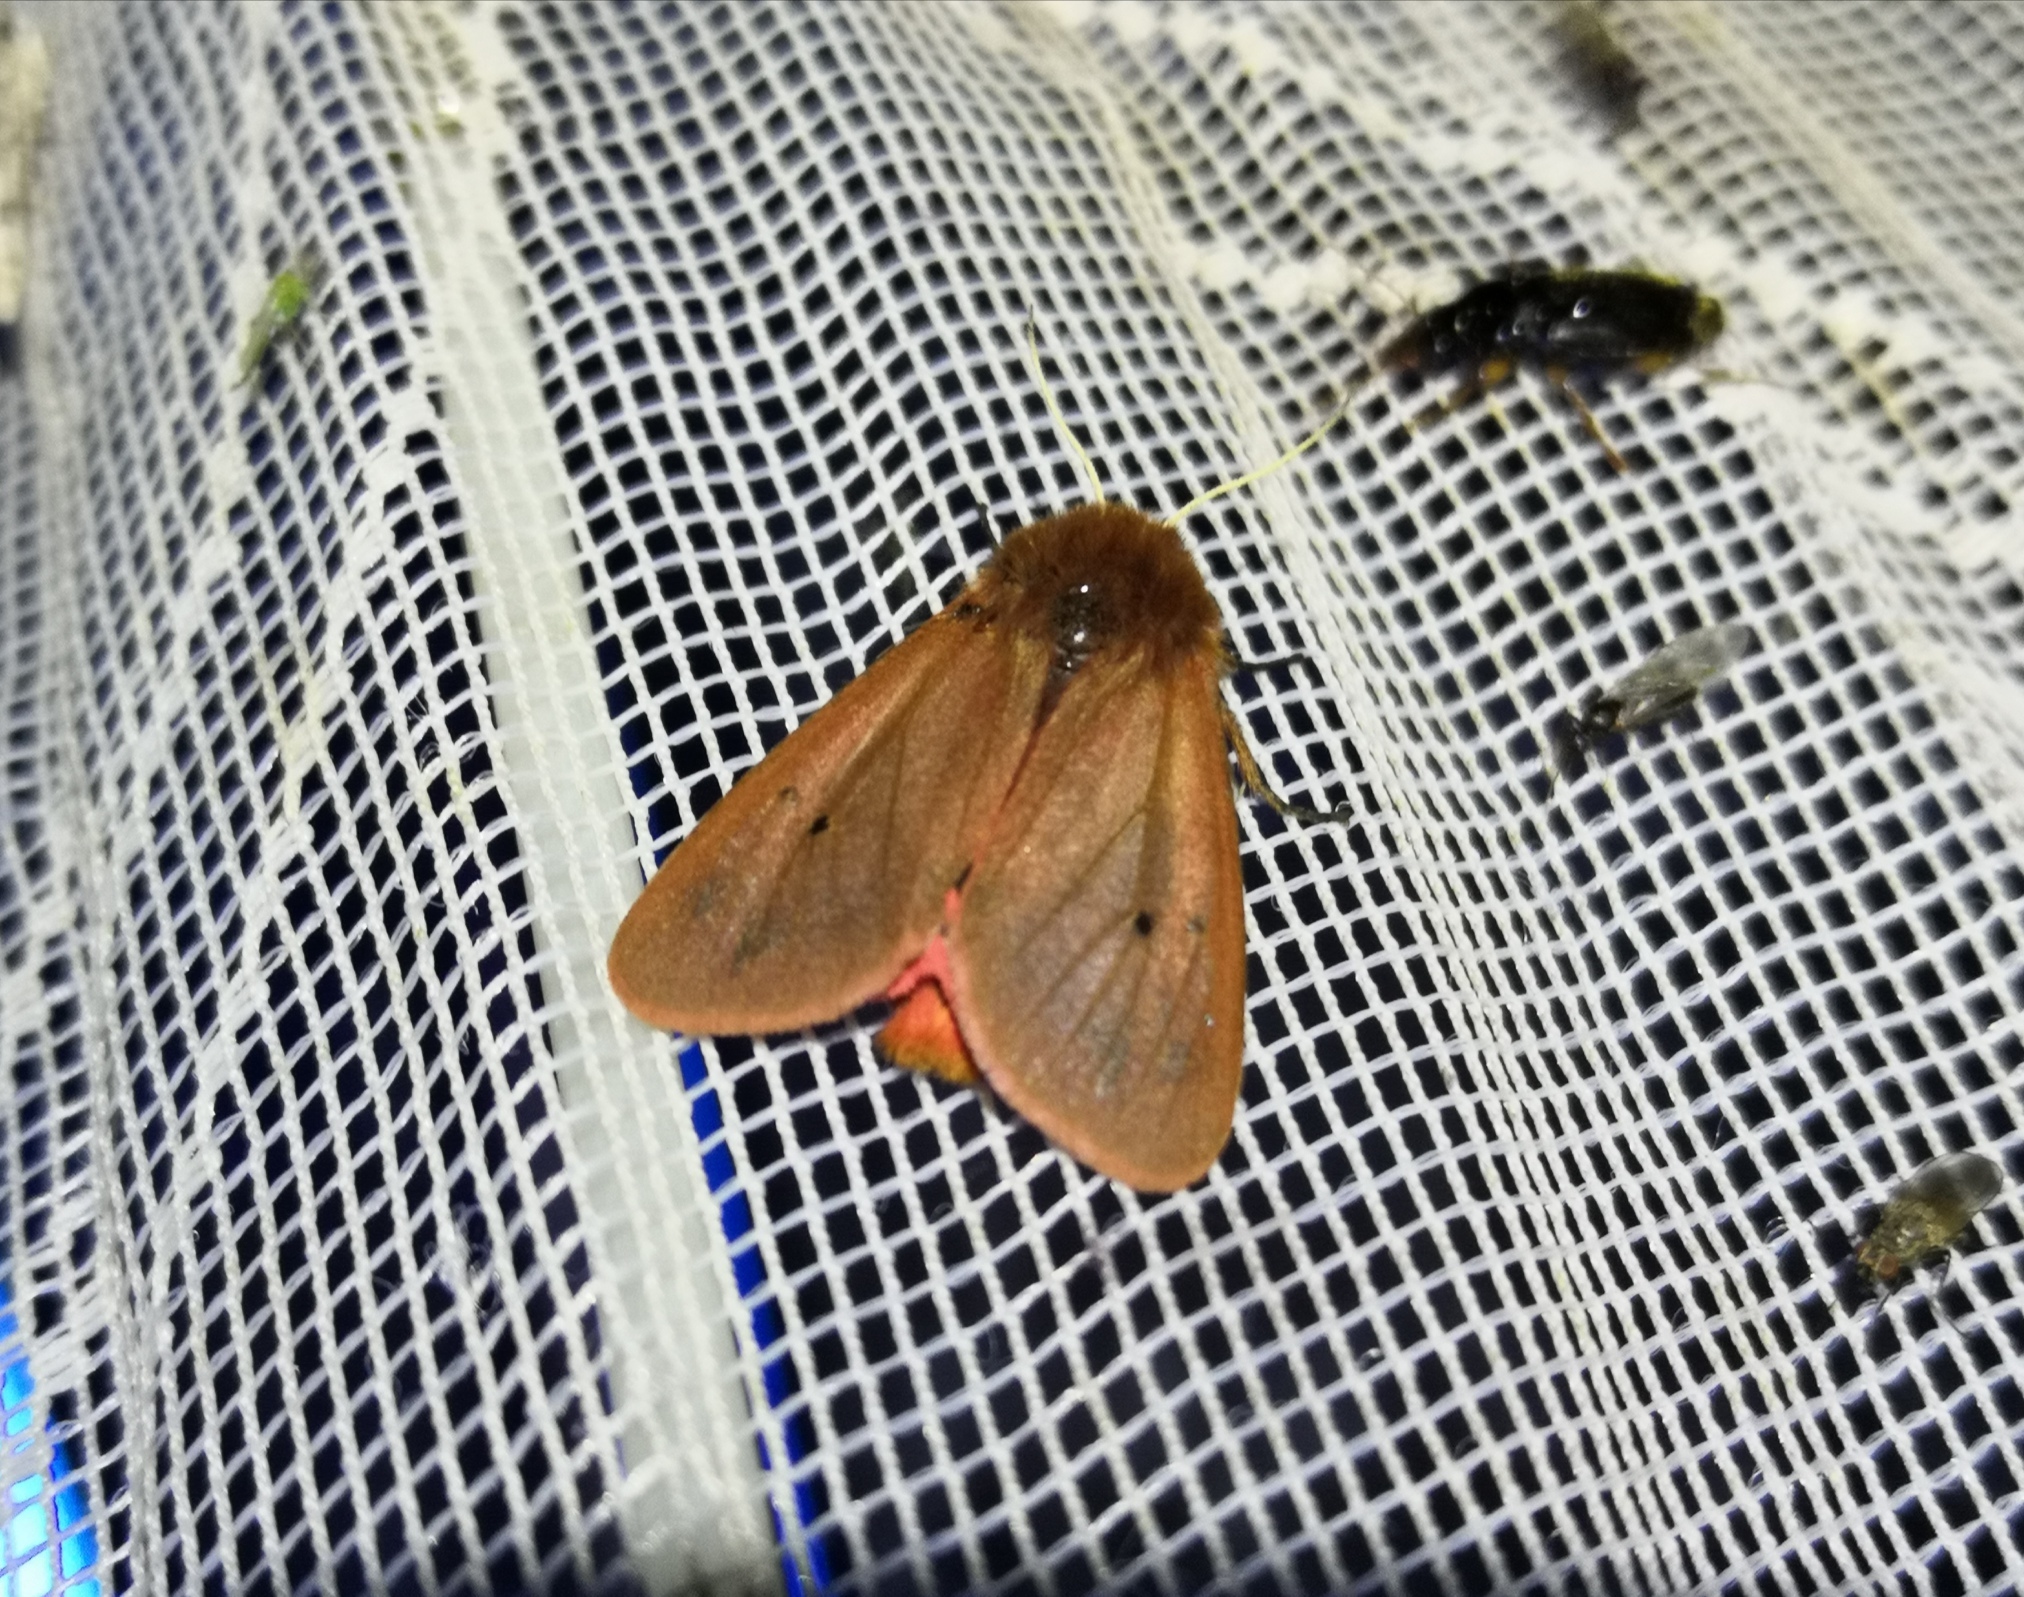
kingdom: Animalia
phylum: Arthropoda
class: Insecta
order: Lepidoptera
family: Erebidae
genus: Phragmatobia
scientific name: Phragmatobia fuliginosa
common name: Ruby tiger
